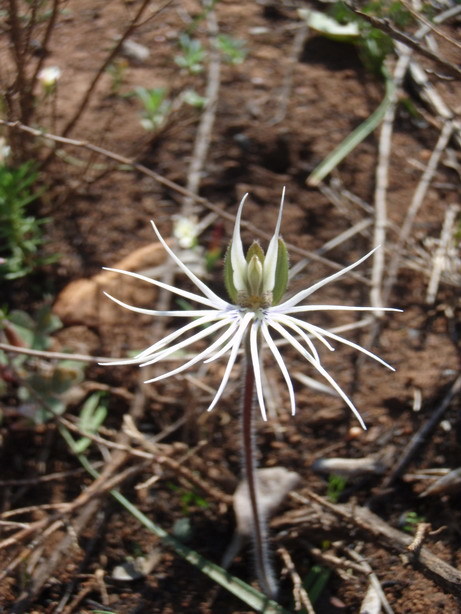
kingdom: Plantae
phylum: Tracheophyta
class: Liliopsida
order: Asparagales
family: Orchidaceae
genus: Holothrix
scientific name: Holothrix burmanniana
